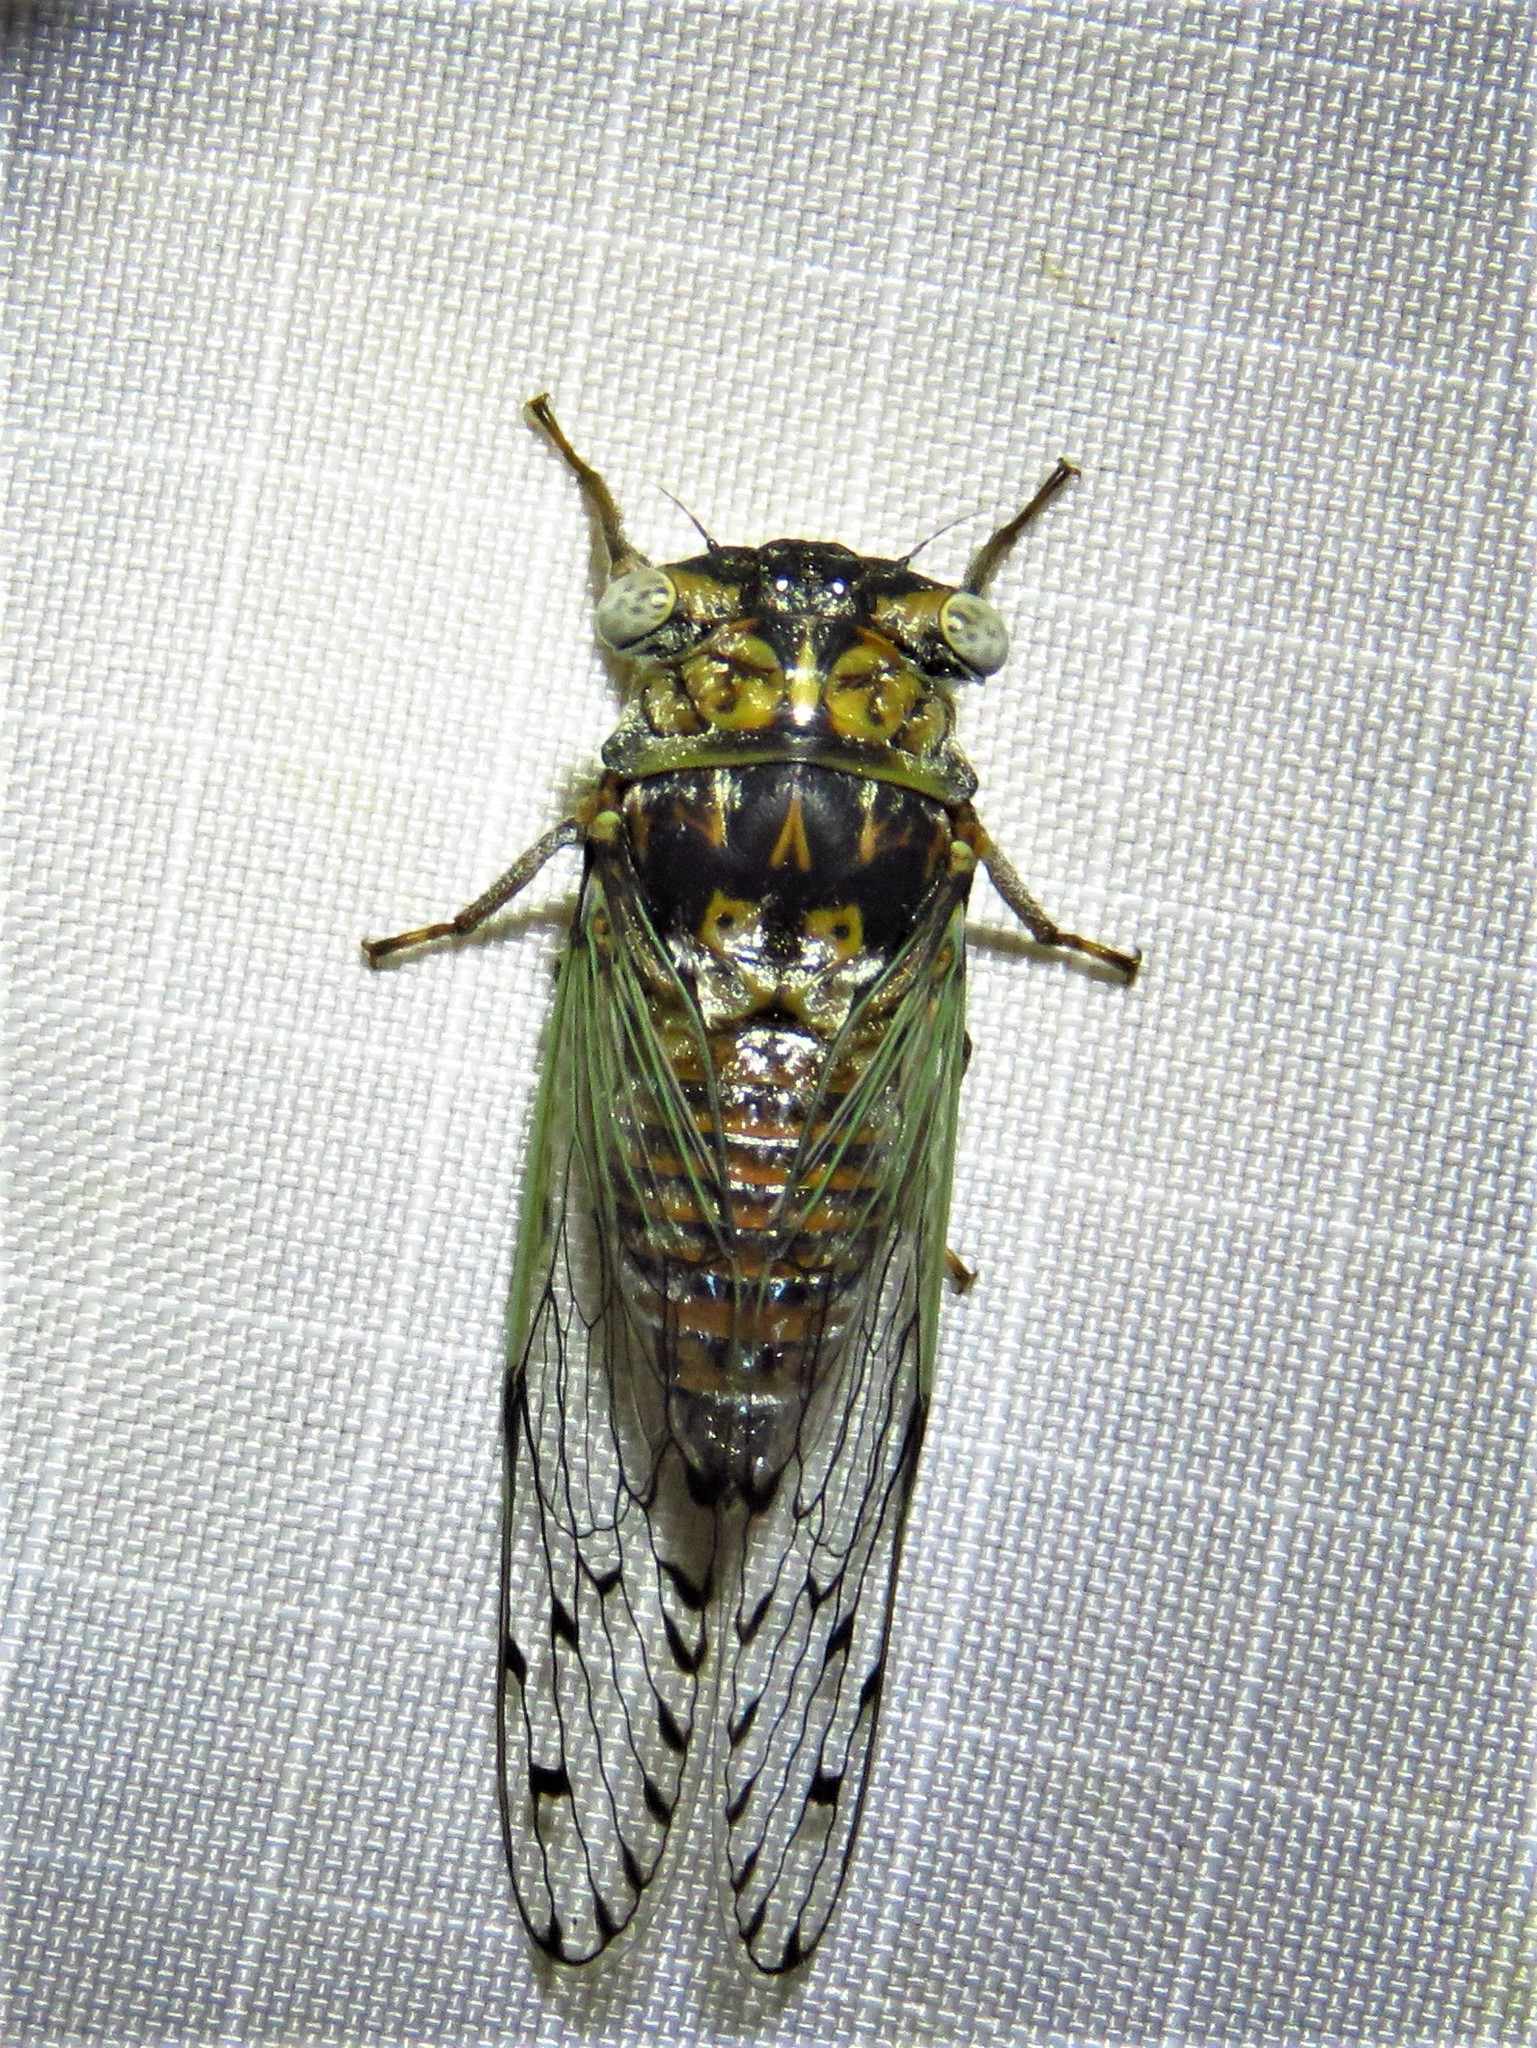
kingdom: Animalia
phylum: Arthropoda
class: Insecta
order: Hemiptera
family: Cicadidae
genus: Pacarina
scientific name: Pacarina puella
